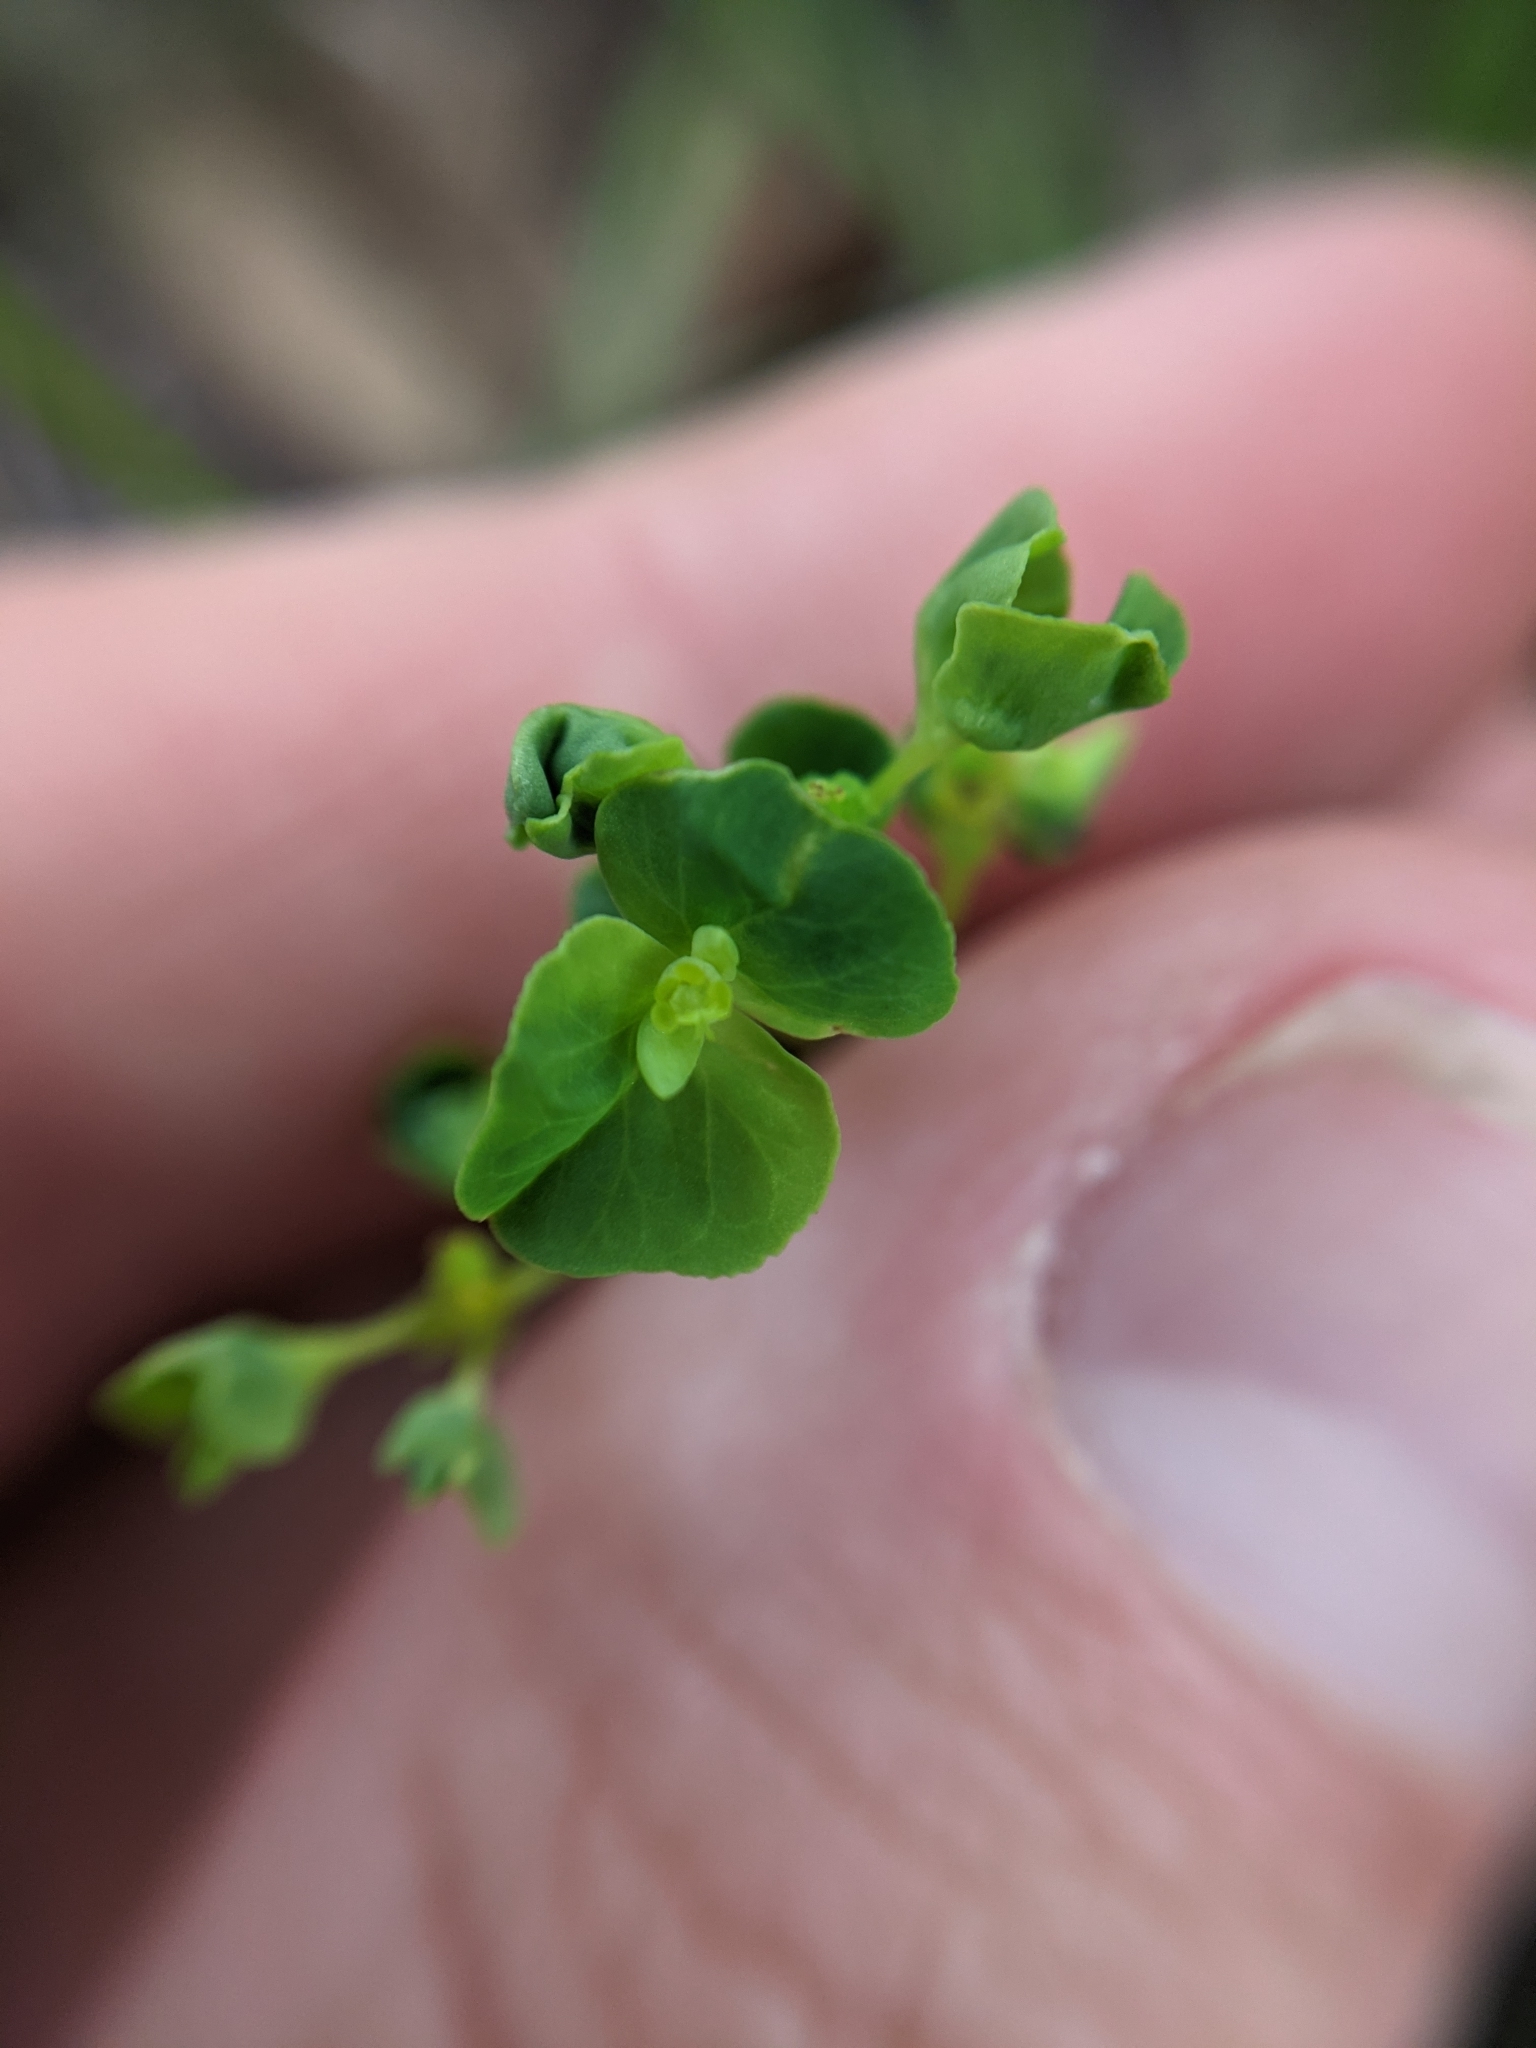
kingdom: Plantae
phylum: Tracheophyta
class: Magnoliopsida
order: Malpighiales
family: Euphorbiaceae
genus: Euphorbia
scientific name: Euphorbia spathulata
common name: Blunt spurge
